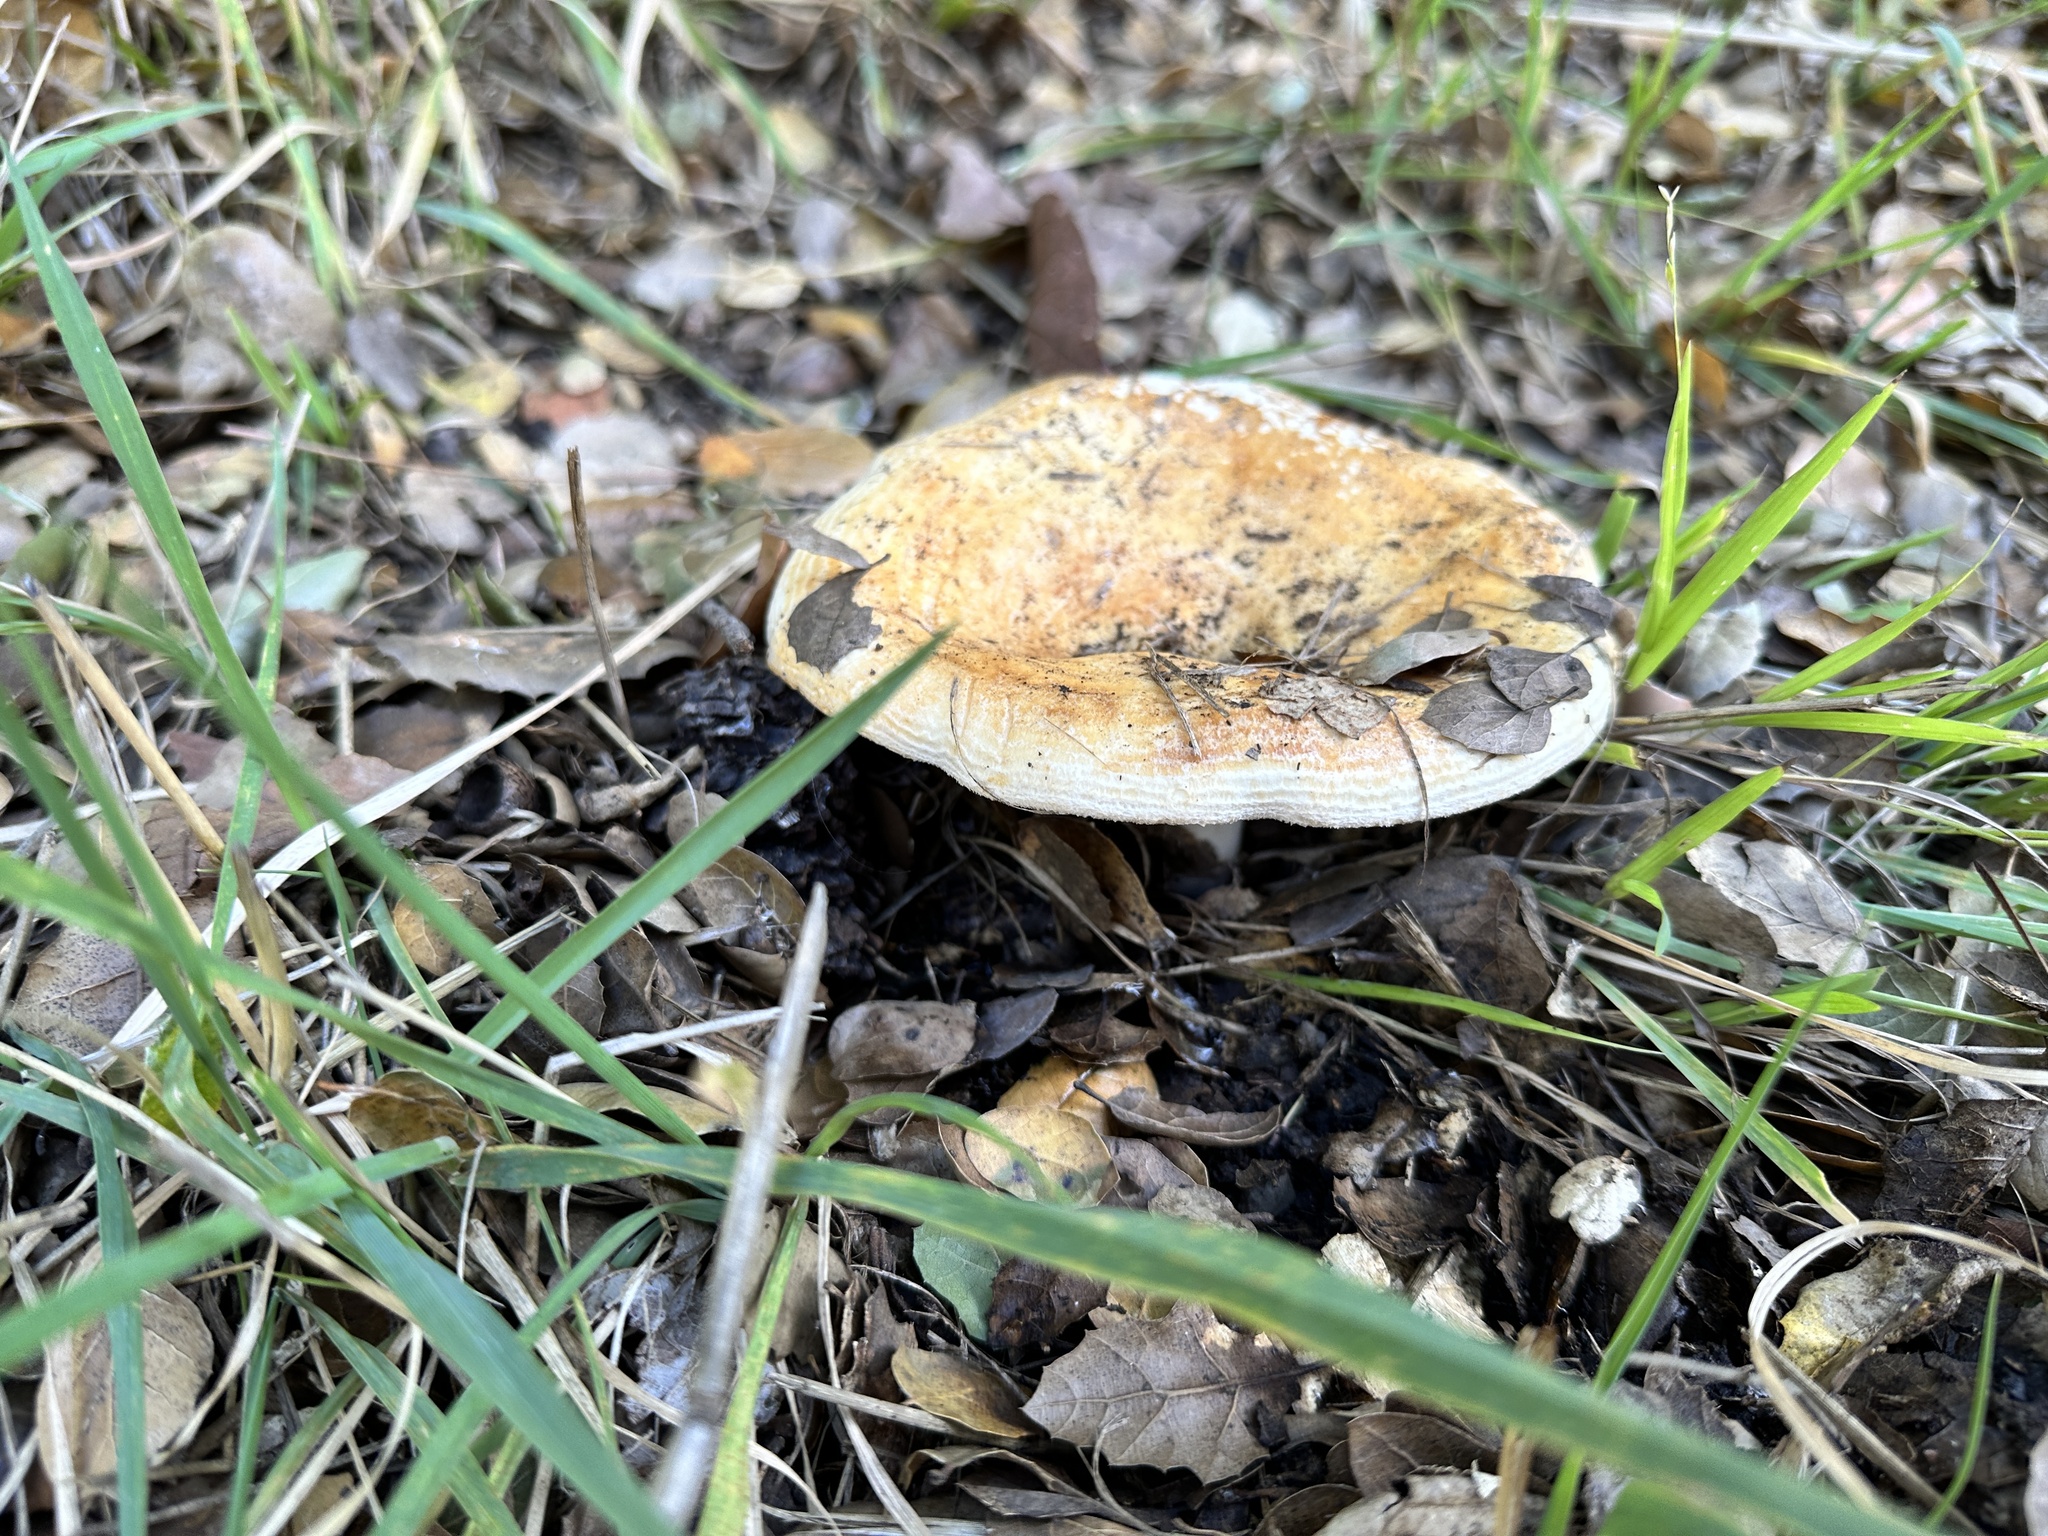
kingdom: Fungi
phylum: Basidiomycota
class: Agaricomycetes
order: Russulales
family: Russulaceae
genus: Lactarius
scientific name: Lactarius alnicola
